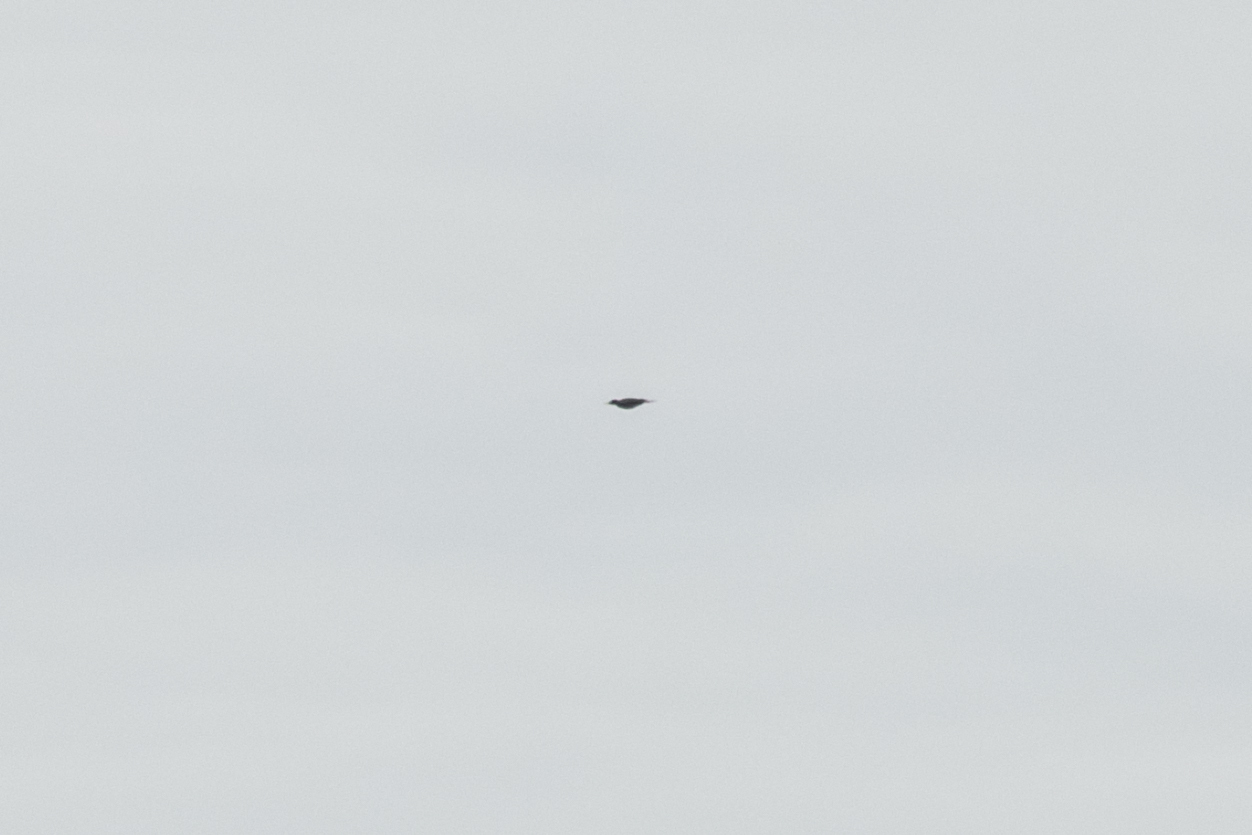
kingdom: Animalia
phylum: Chordata
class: Aves
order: Piciformes
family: Picidae
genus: Dryocopus
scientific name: Dryocopus martius
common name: Black woodpecker
